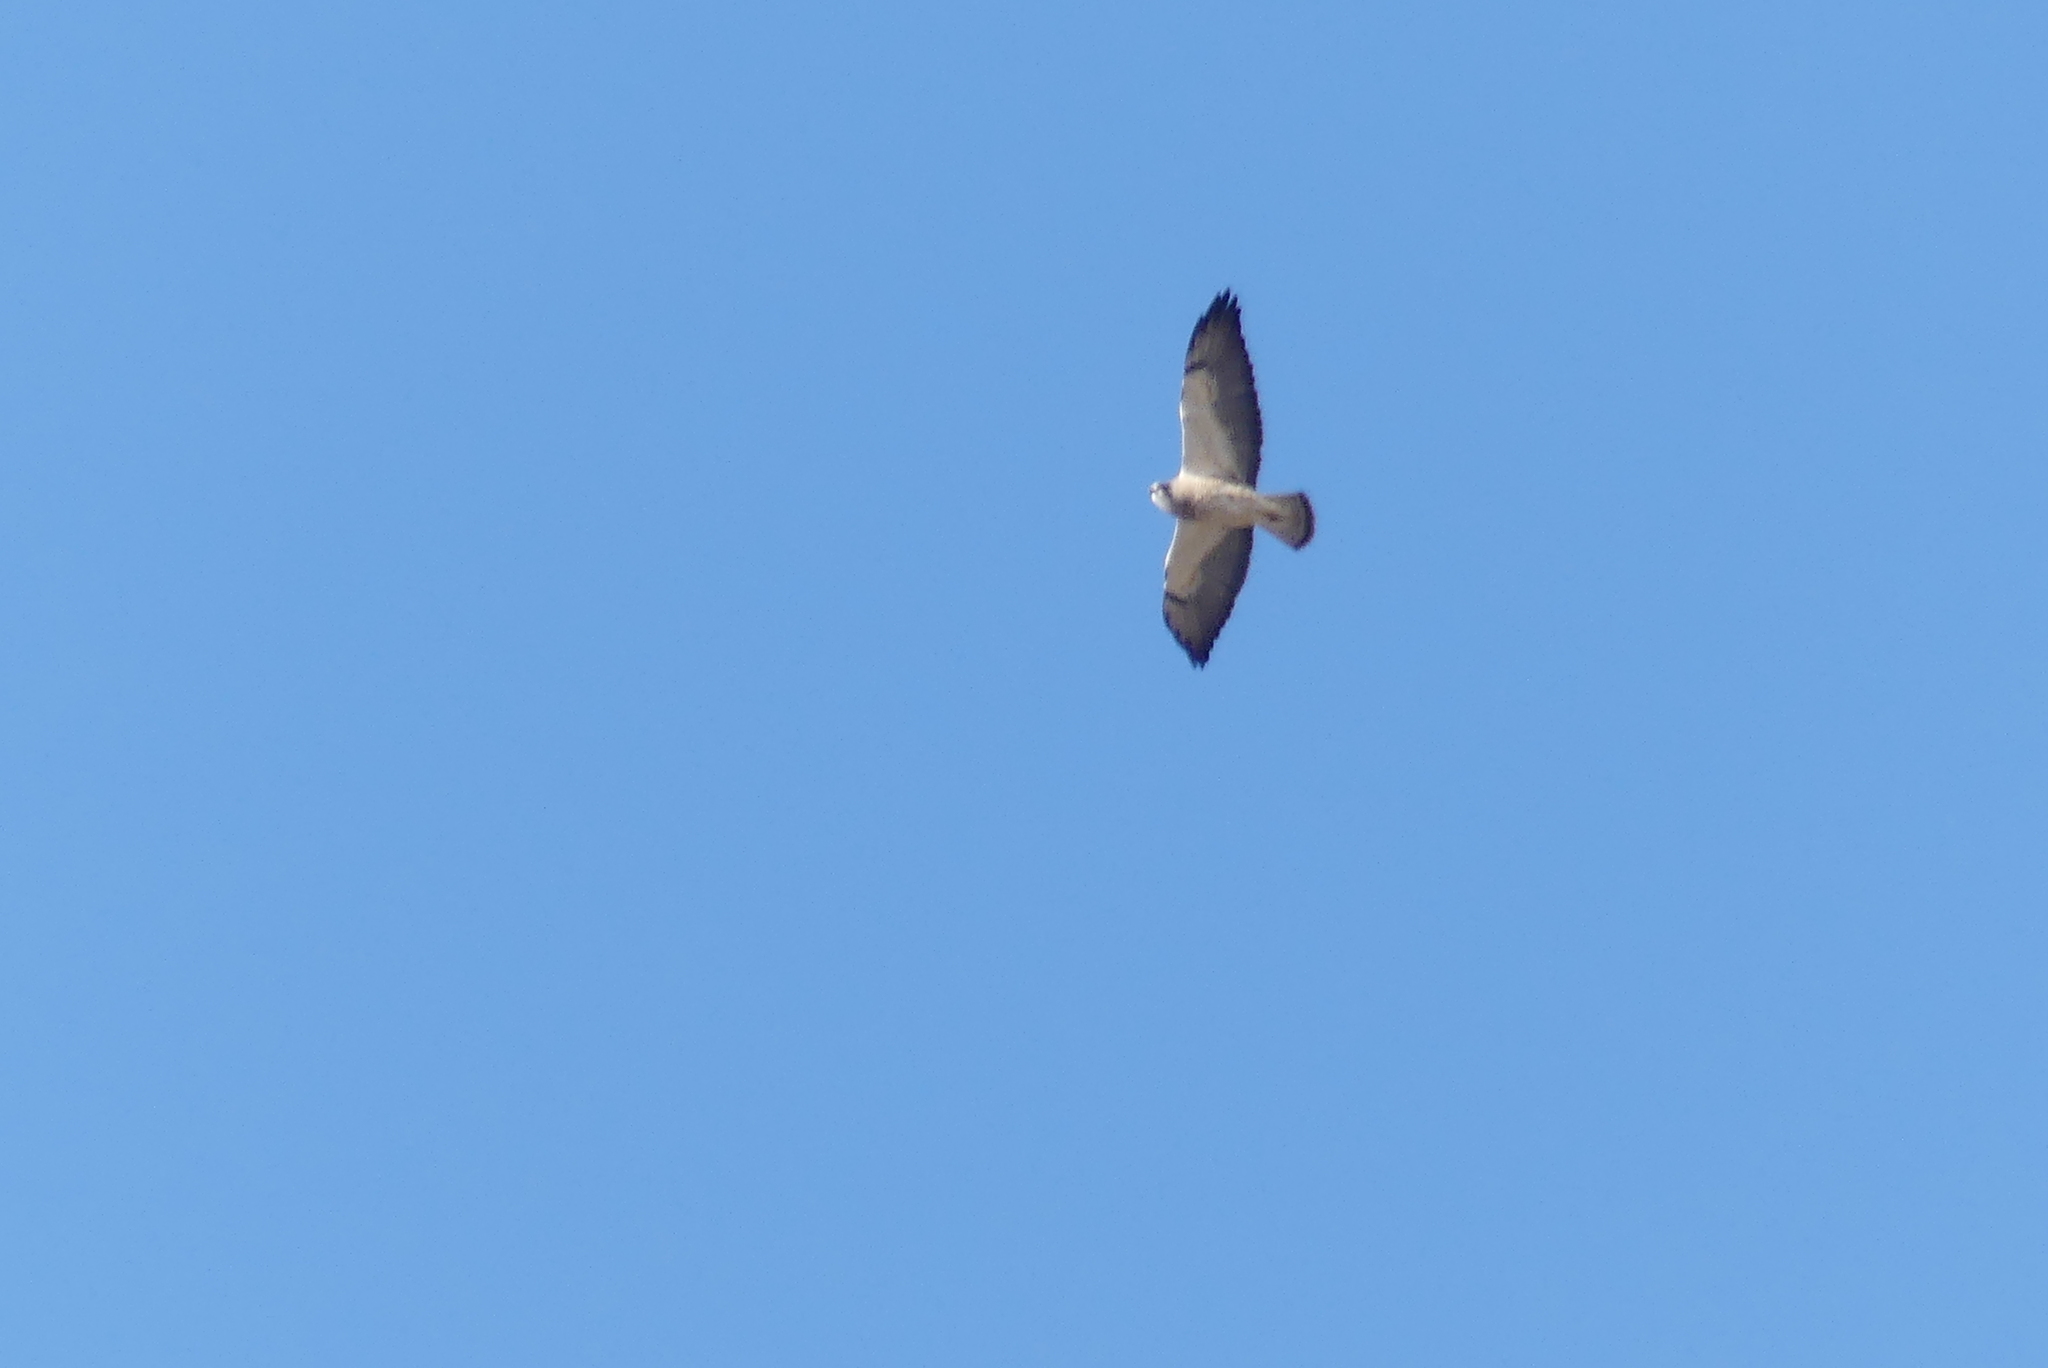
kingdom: Animalia
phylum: Chordata
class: Aves
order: Accipitriformes
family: Accipitridae
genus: Buteo
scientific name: Buteo swainsoni
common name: Swainson's hawk
